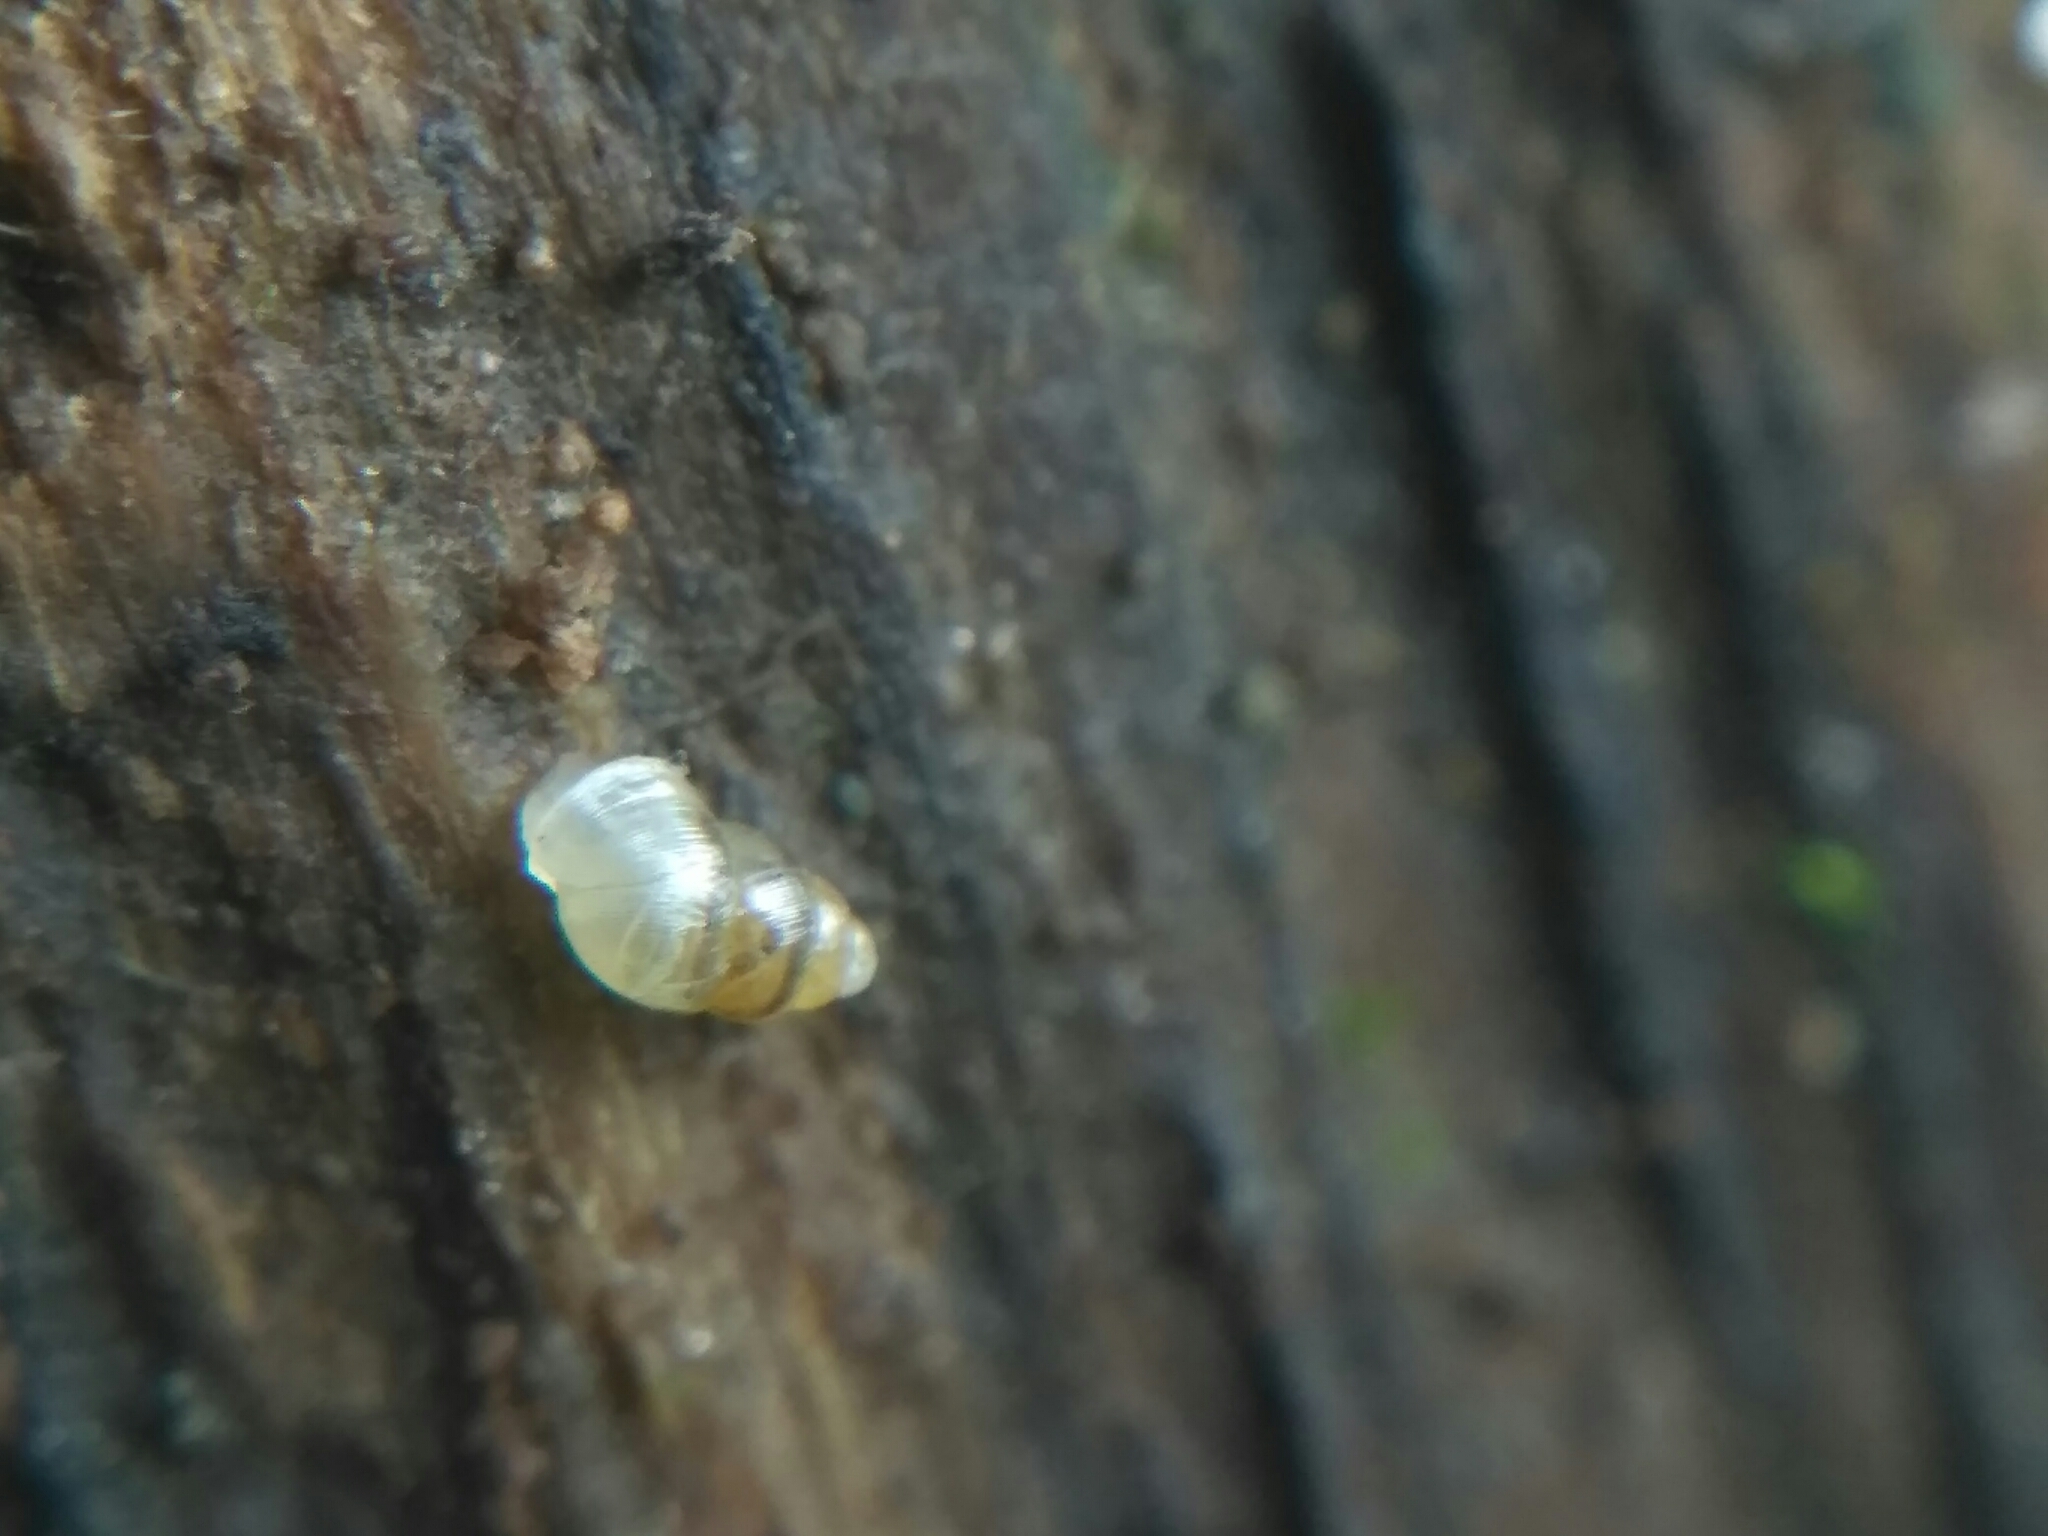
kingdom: Animalia
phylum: Mollusca
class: Gastropoda
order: Ellobiida
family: Ellobiidae
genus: Carychium
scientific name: Carychium minimum
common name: Short-toothed herald snail
